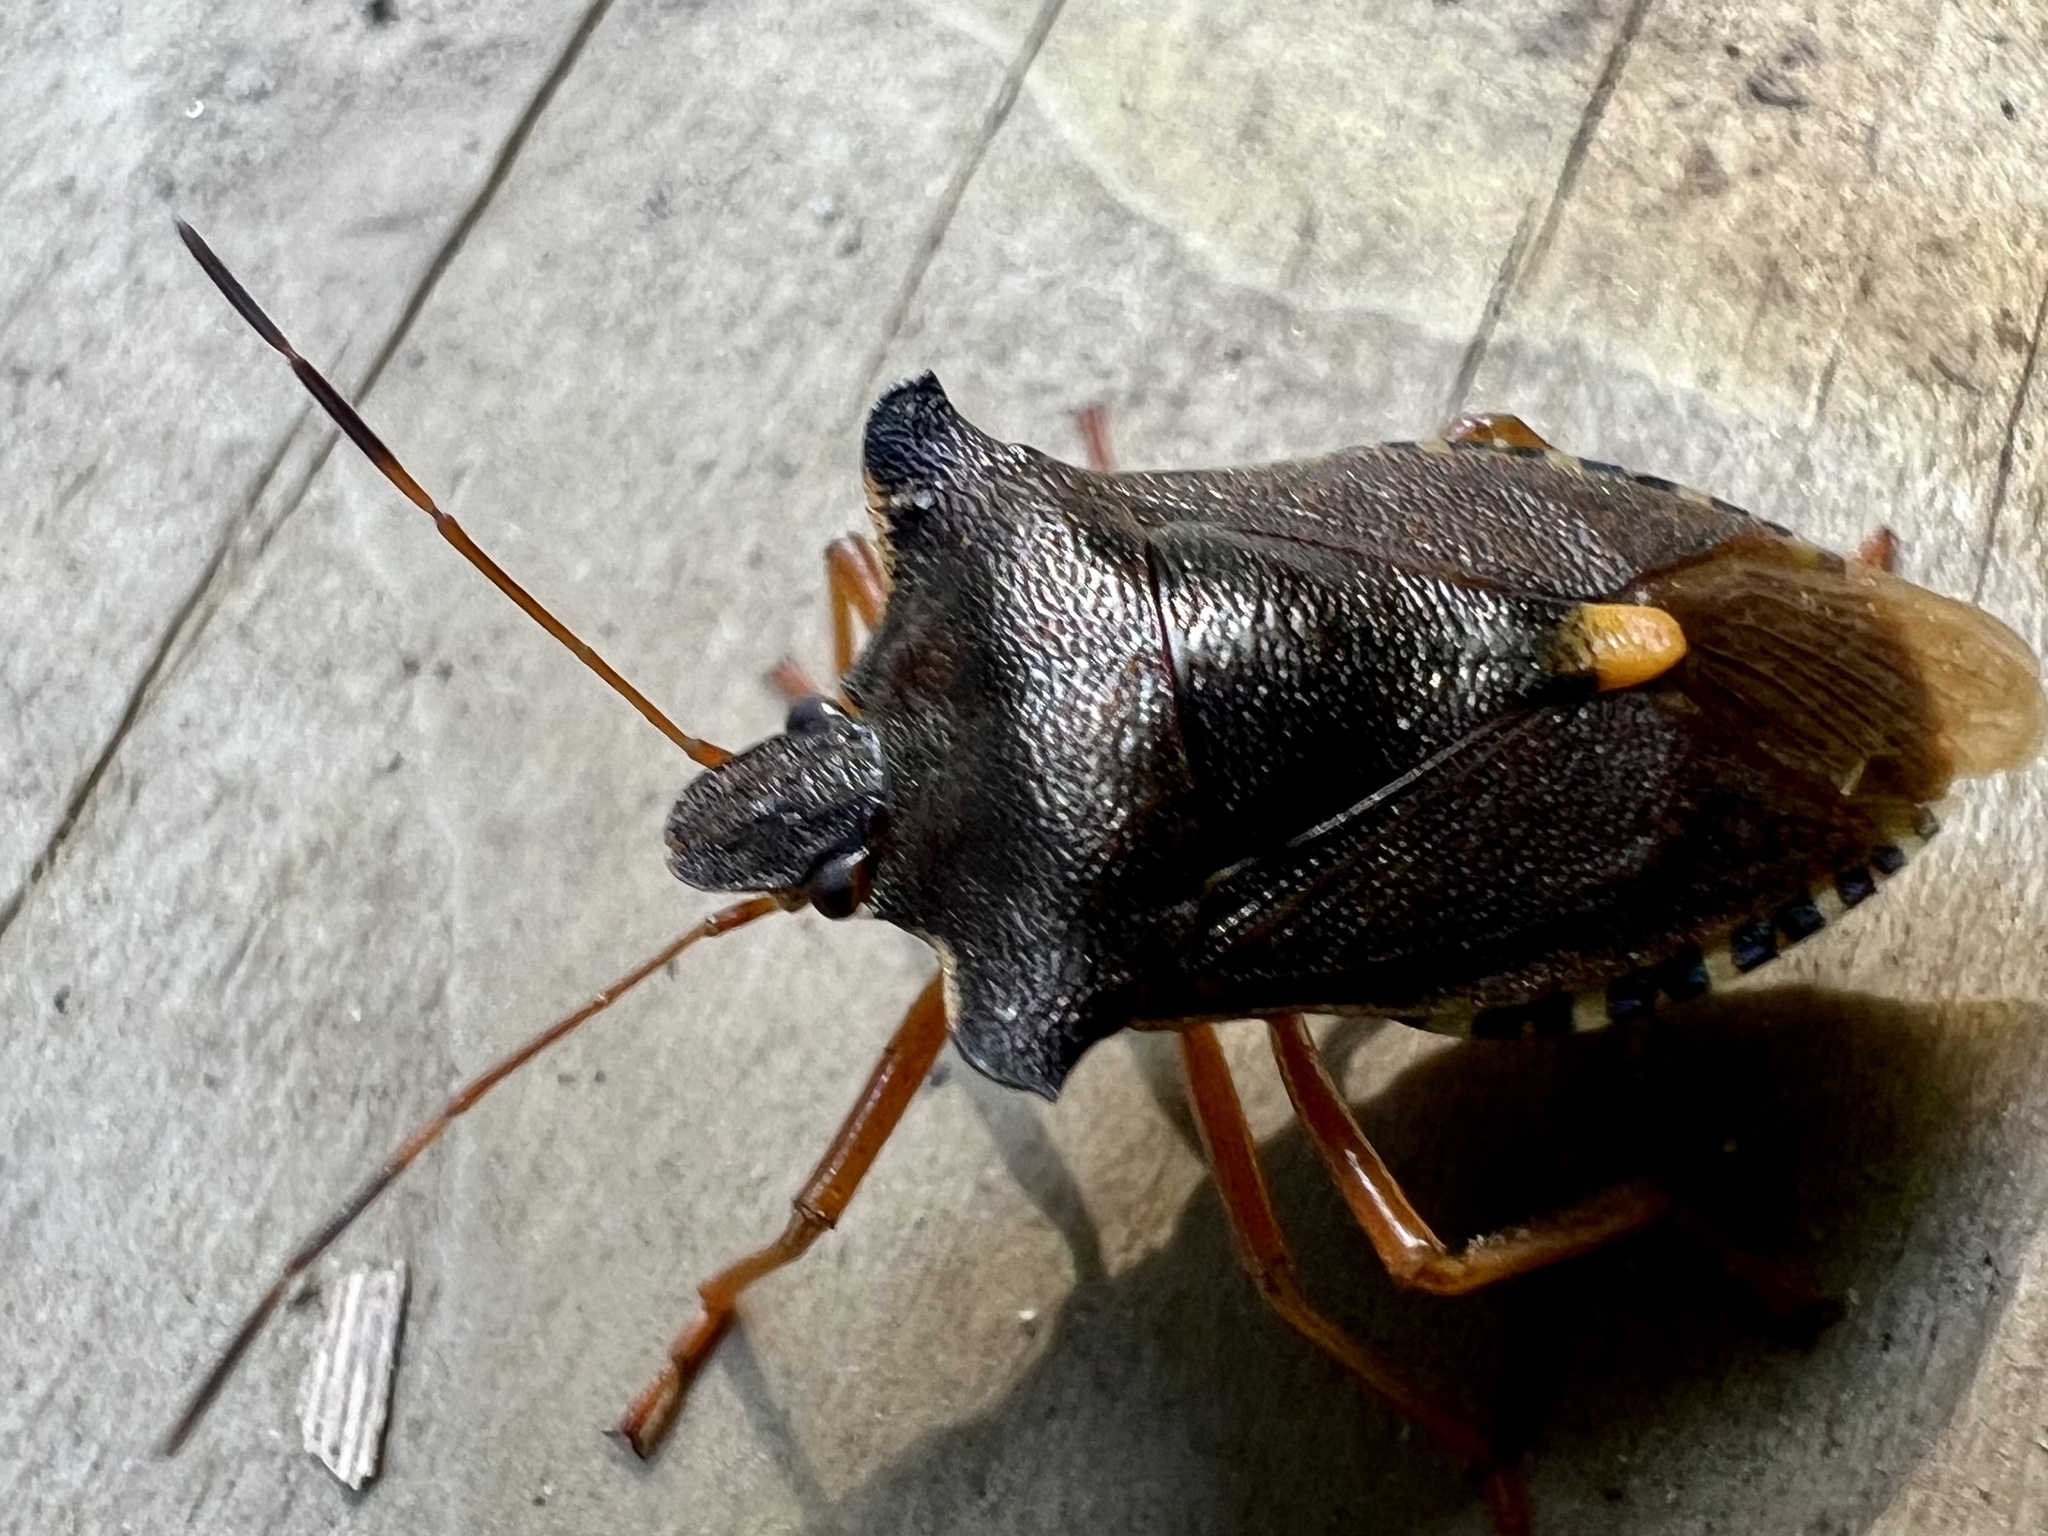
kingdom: Animalia
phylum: Arthropoda
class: Insecta
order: Hemiptera
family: Pentatomidae
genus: Pentatoma
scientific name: Pentatoma rufipes
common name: Forest bug
